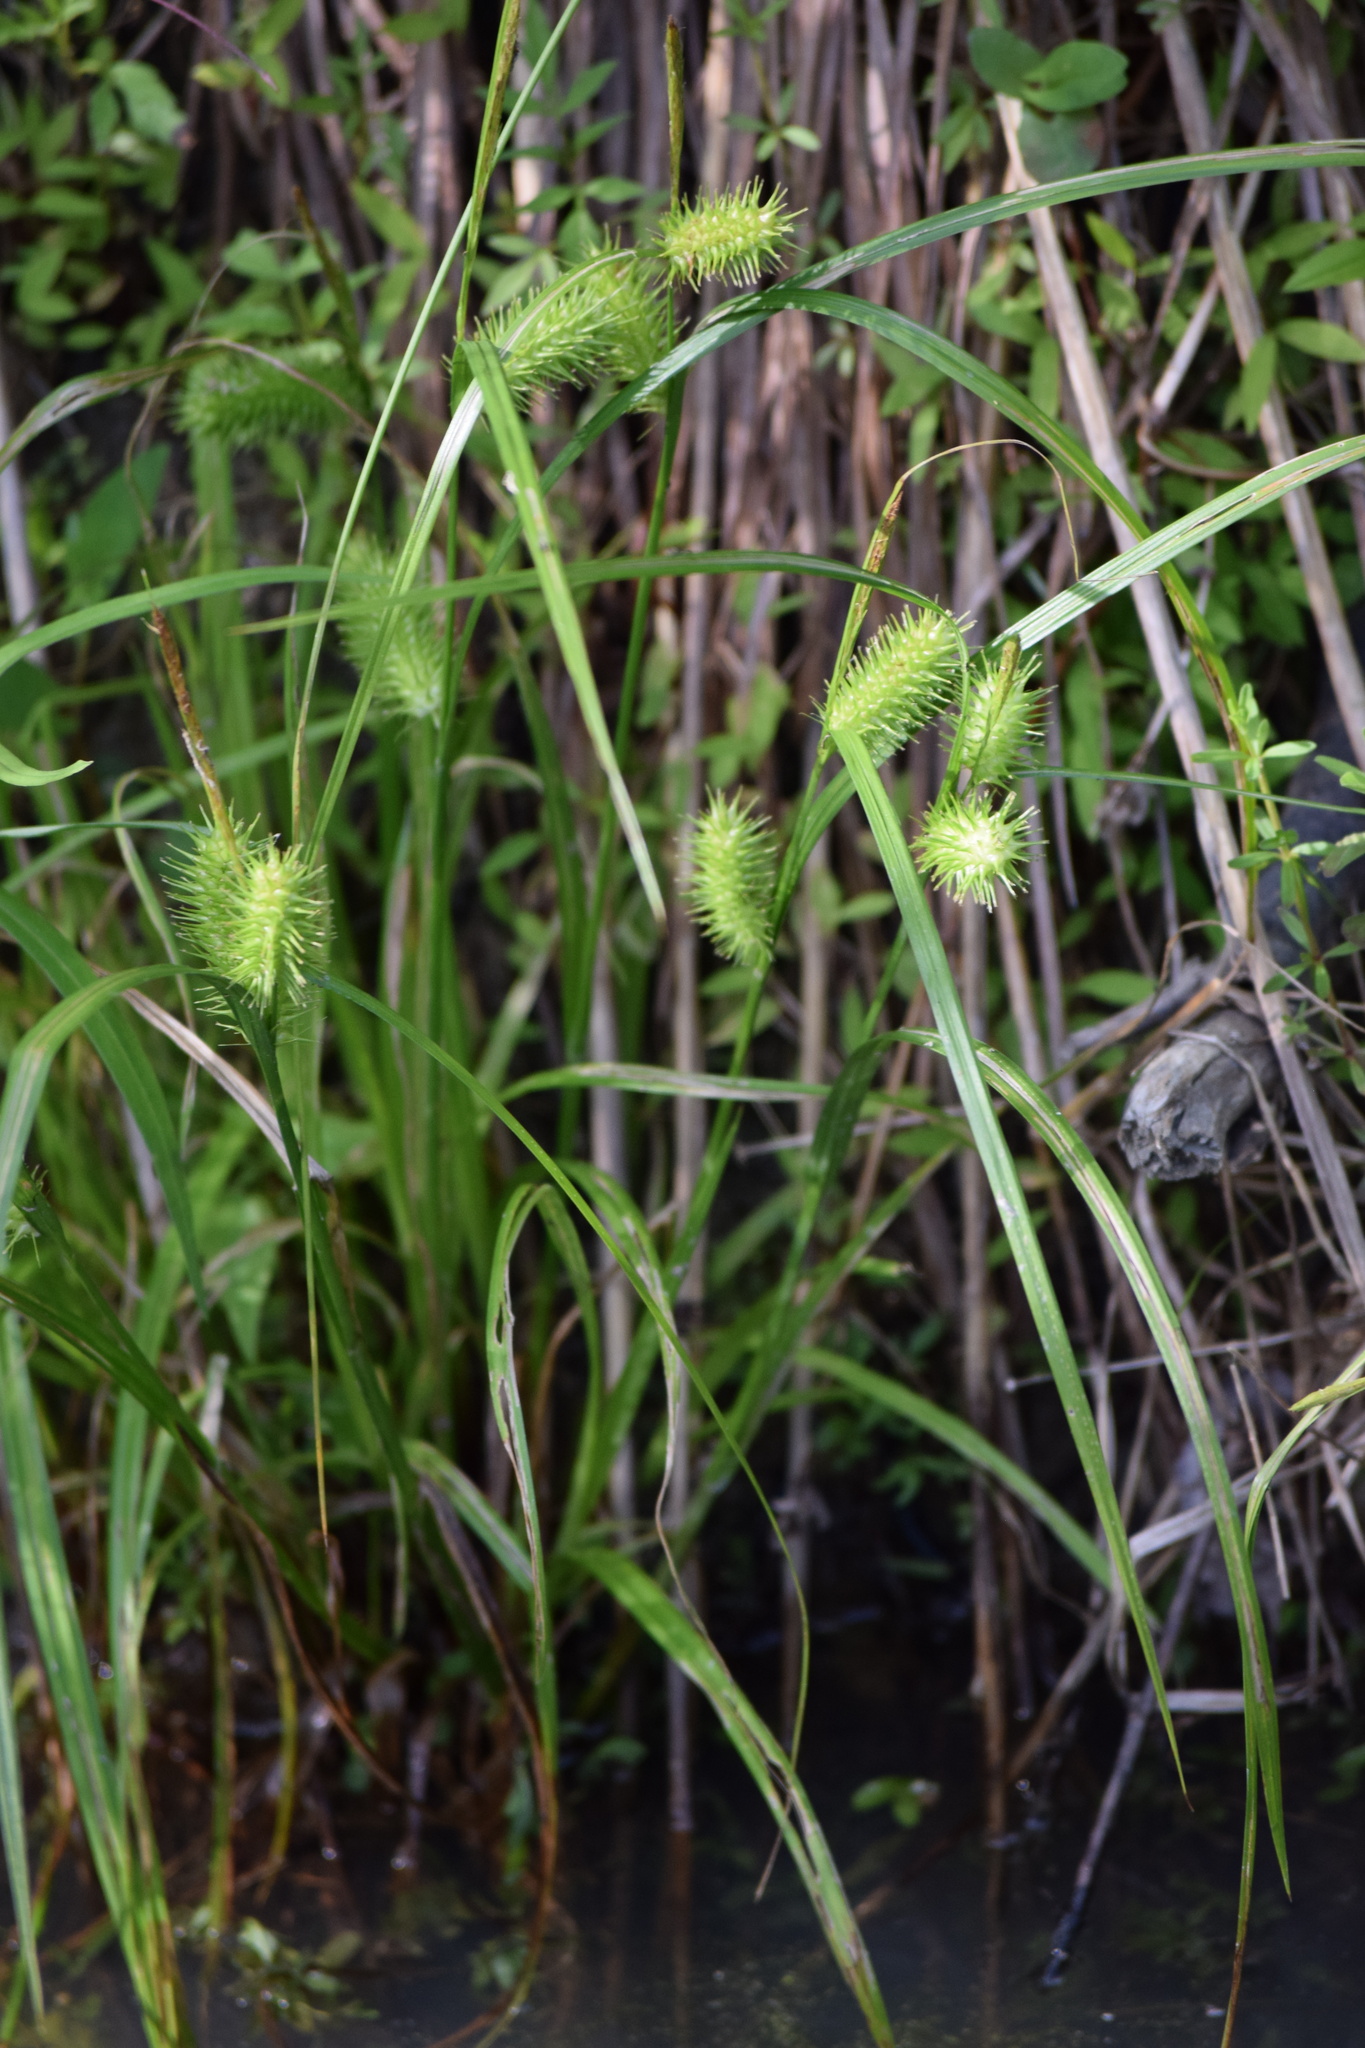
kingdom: Plantae
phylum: Tracheophyta
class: Liliopsida
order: Poales
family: Cyperaceae
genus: Carex
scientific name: Carex lurida
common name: Sallow sedge
